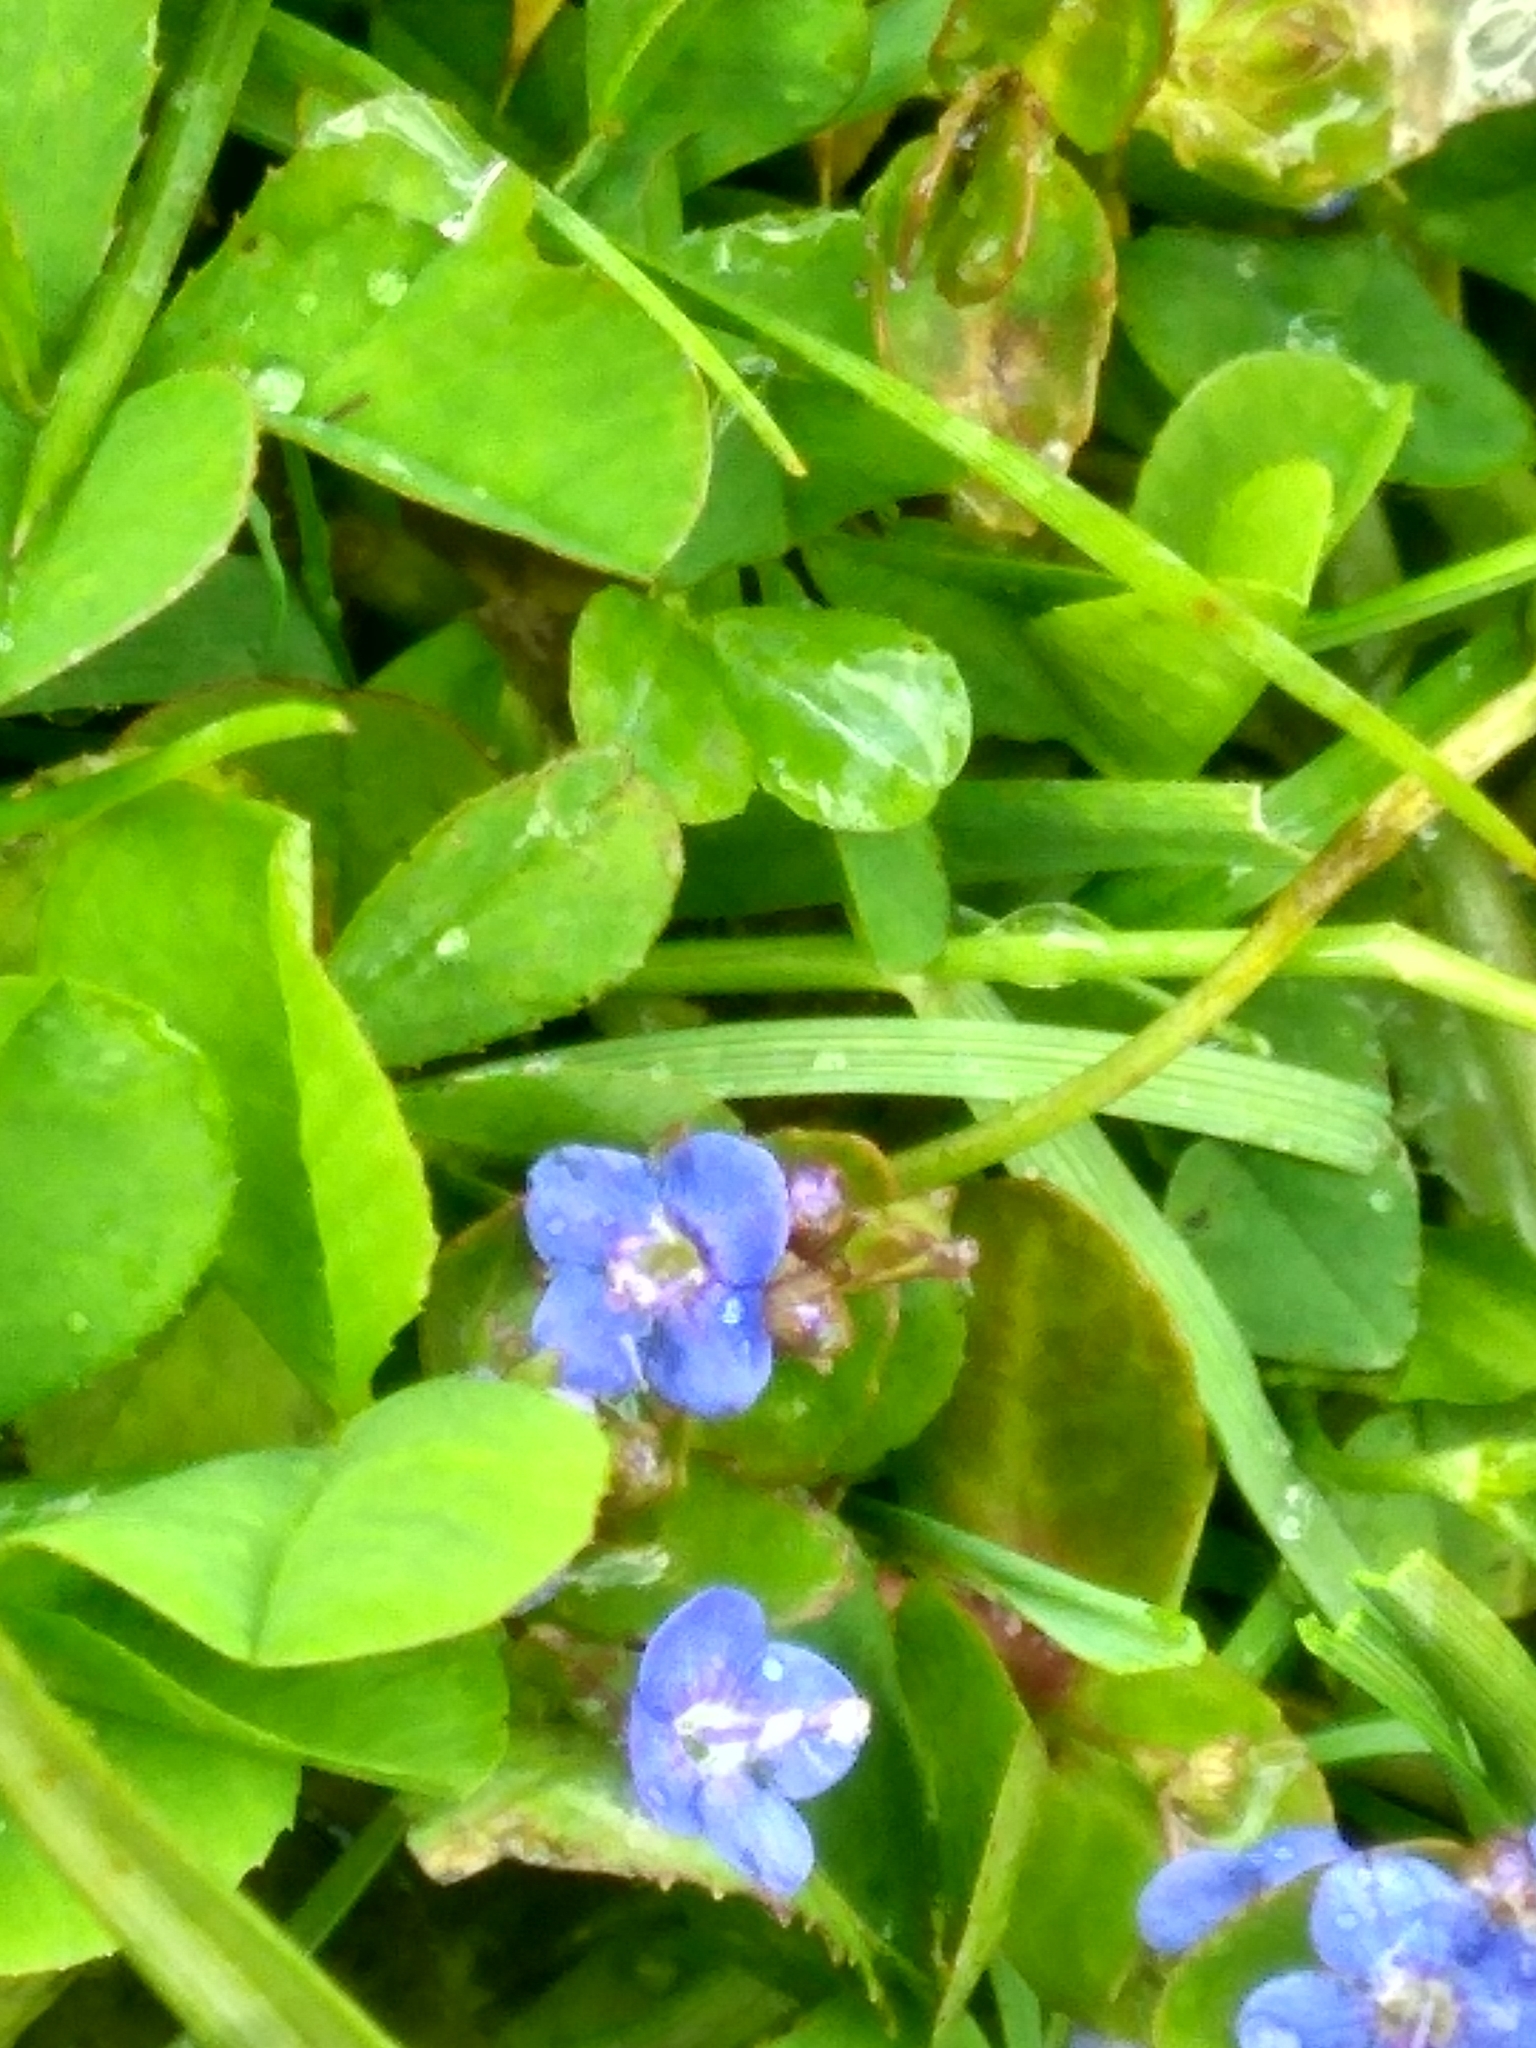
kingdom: Plantae
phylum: Tracheophyta
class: Magnoliopsida
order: Lamiales
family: Plantaginaceae
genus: Veronica
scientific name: Veronica beccabunga
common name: Brooklime
